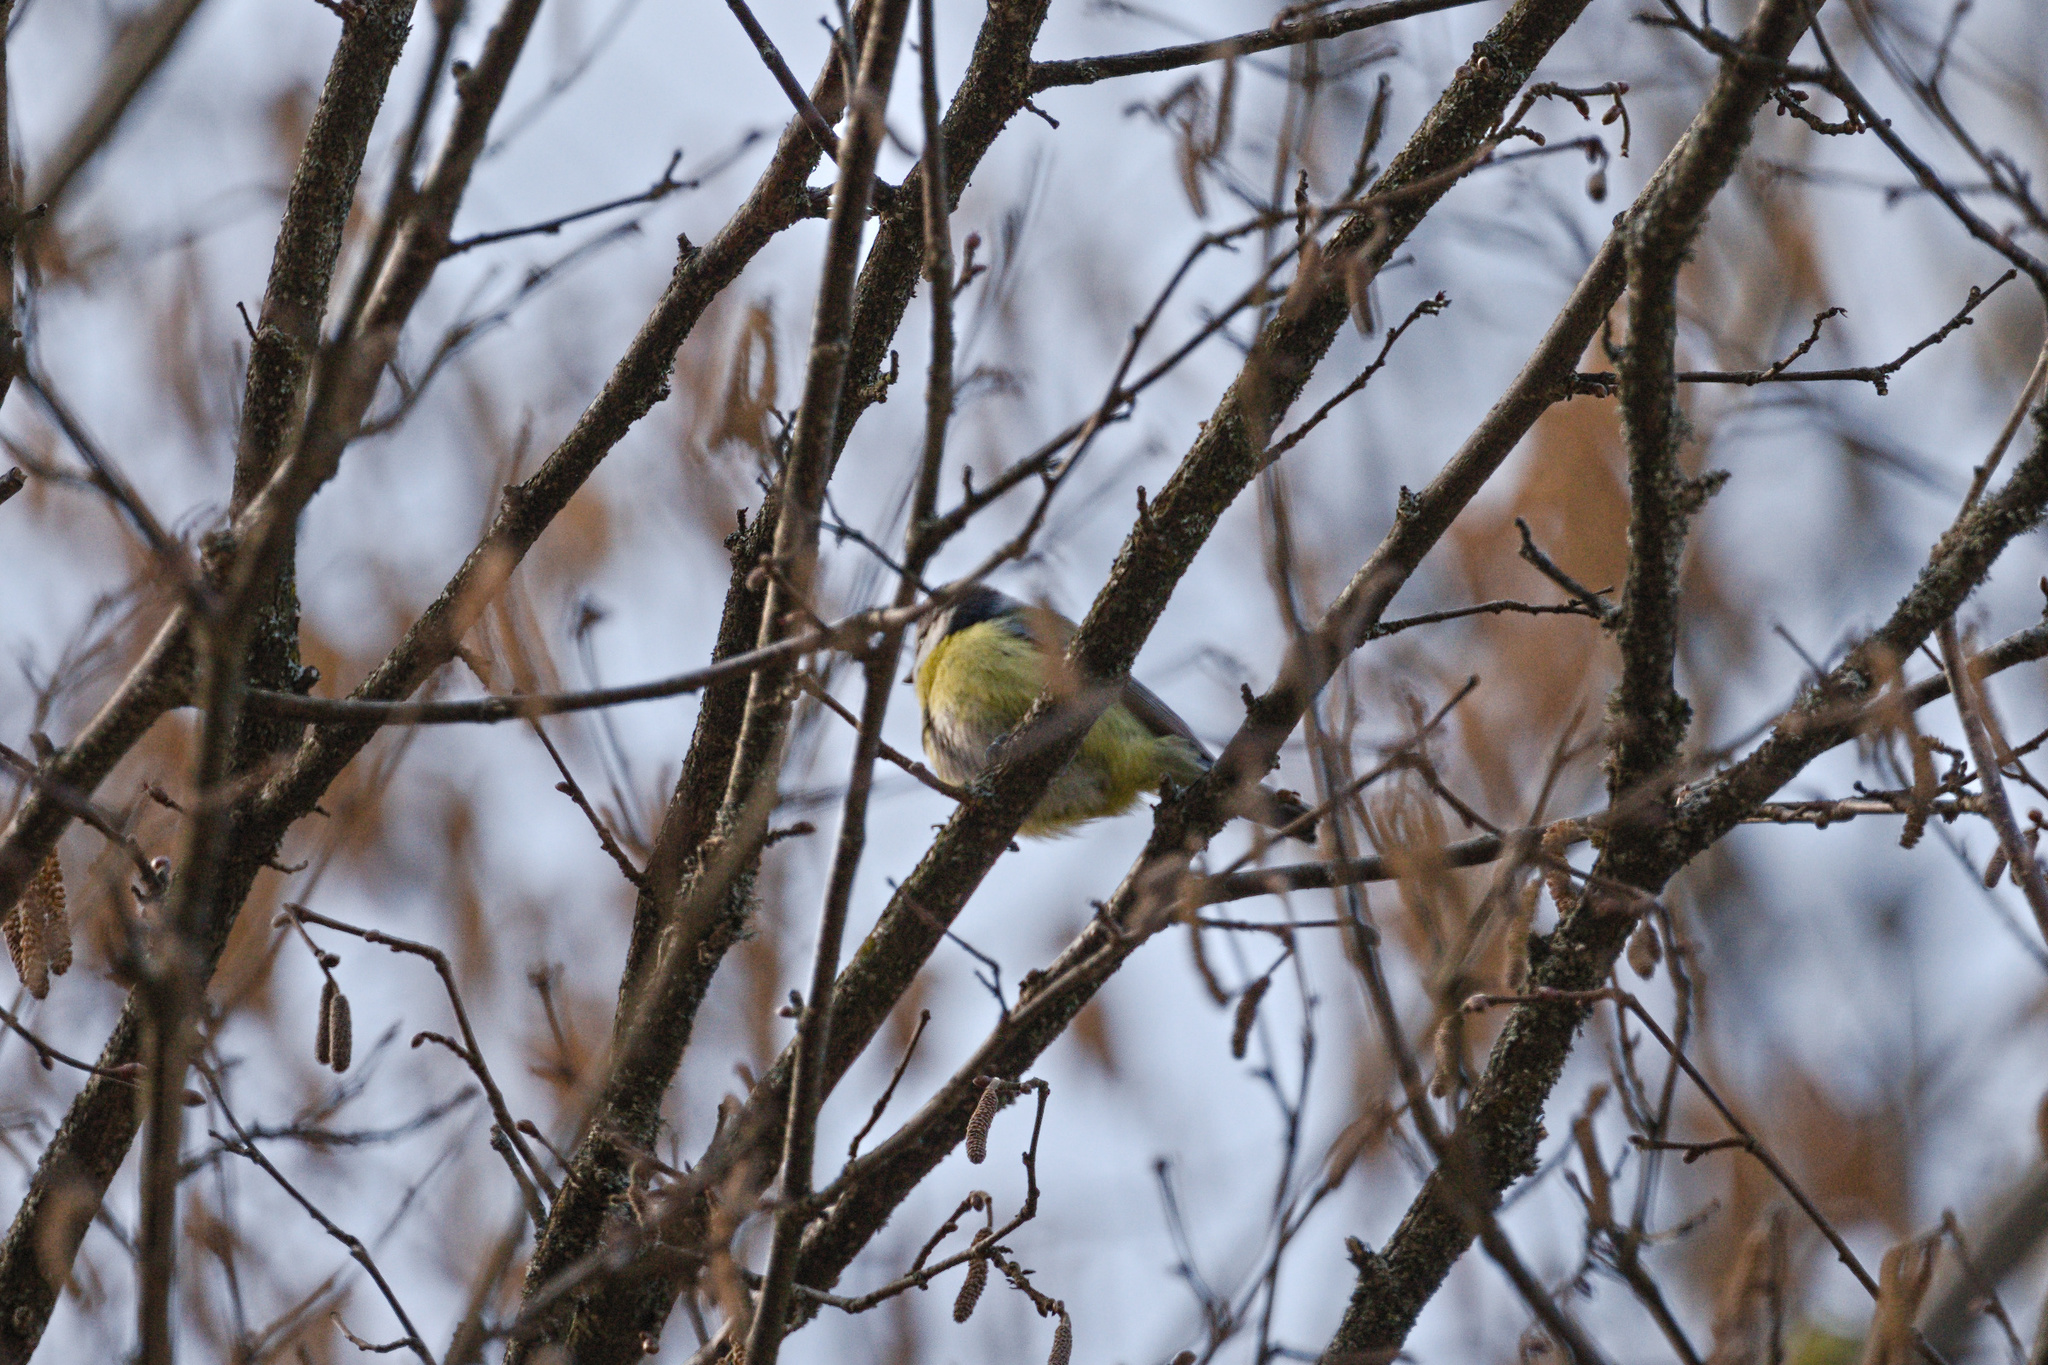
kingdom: Animalia
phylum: Chordata
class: Aves
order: Passeriformes
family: Paridae
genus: Cyanistes
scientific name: Cyanistes caeruleus
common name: Eurasian blue tit
